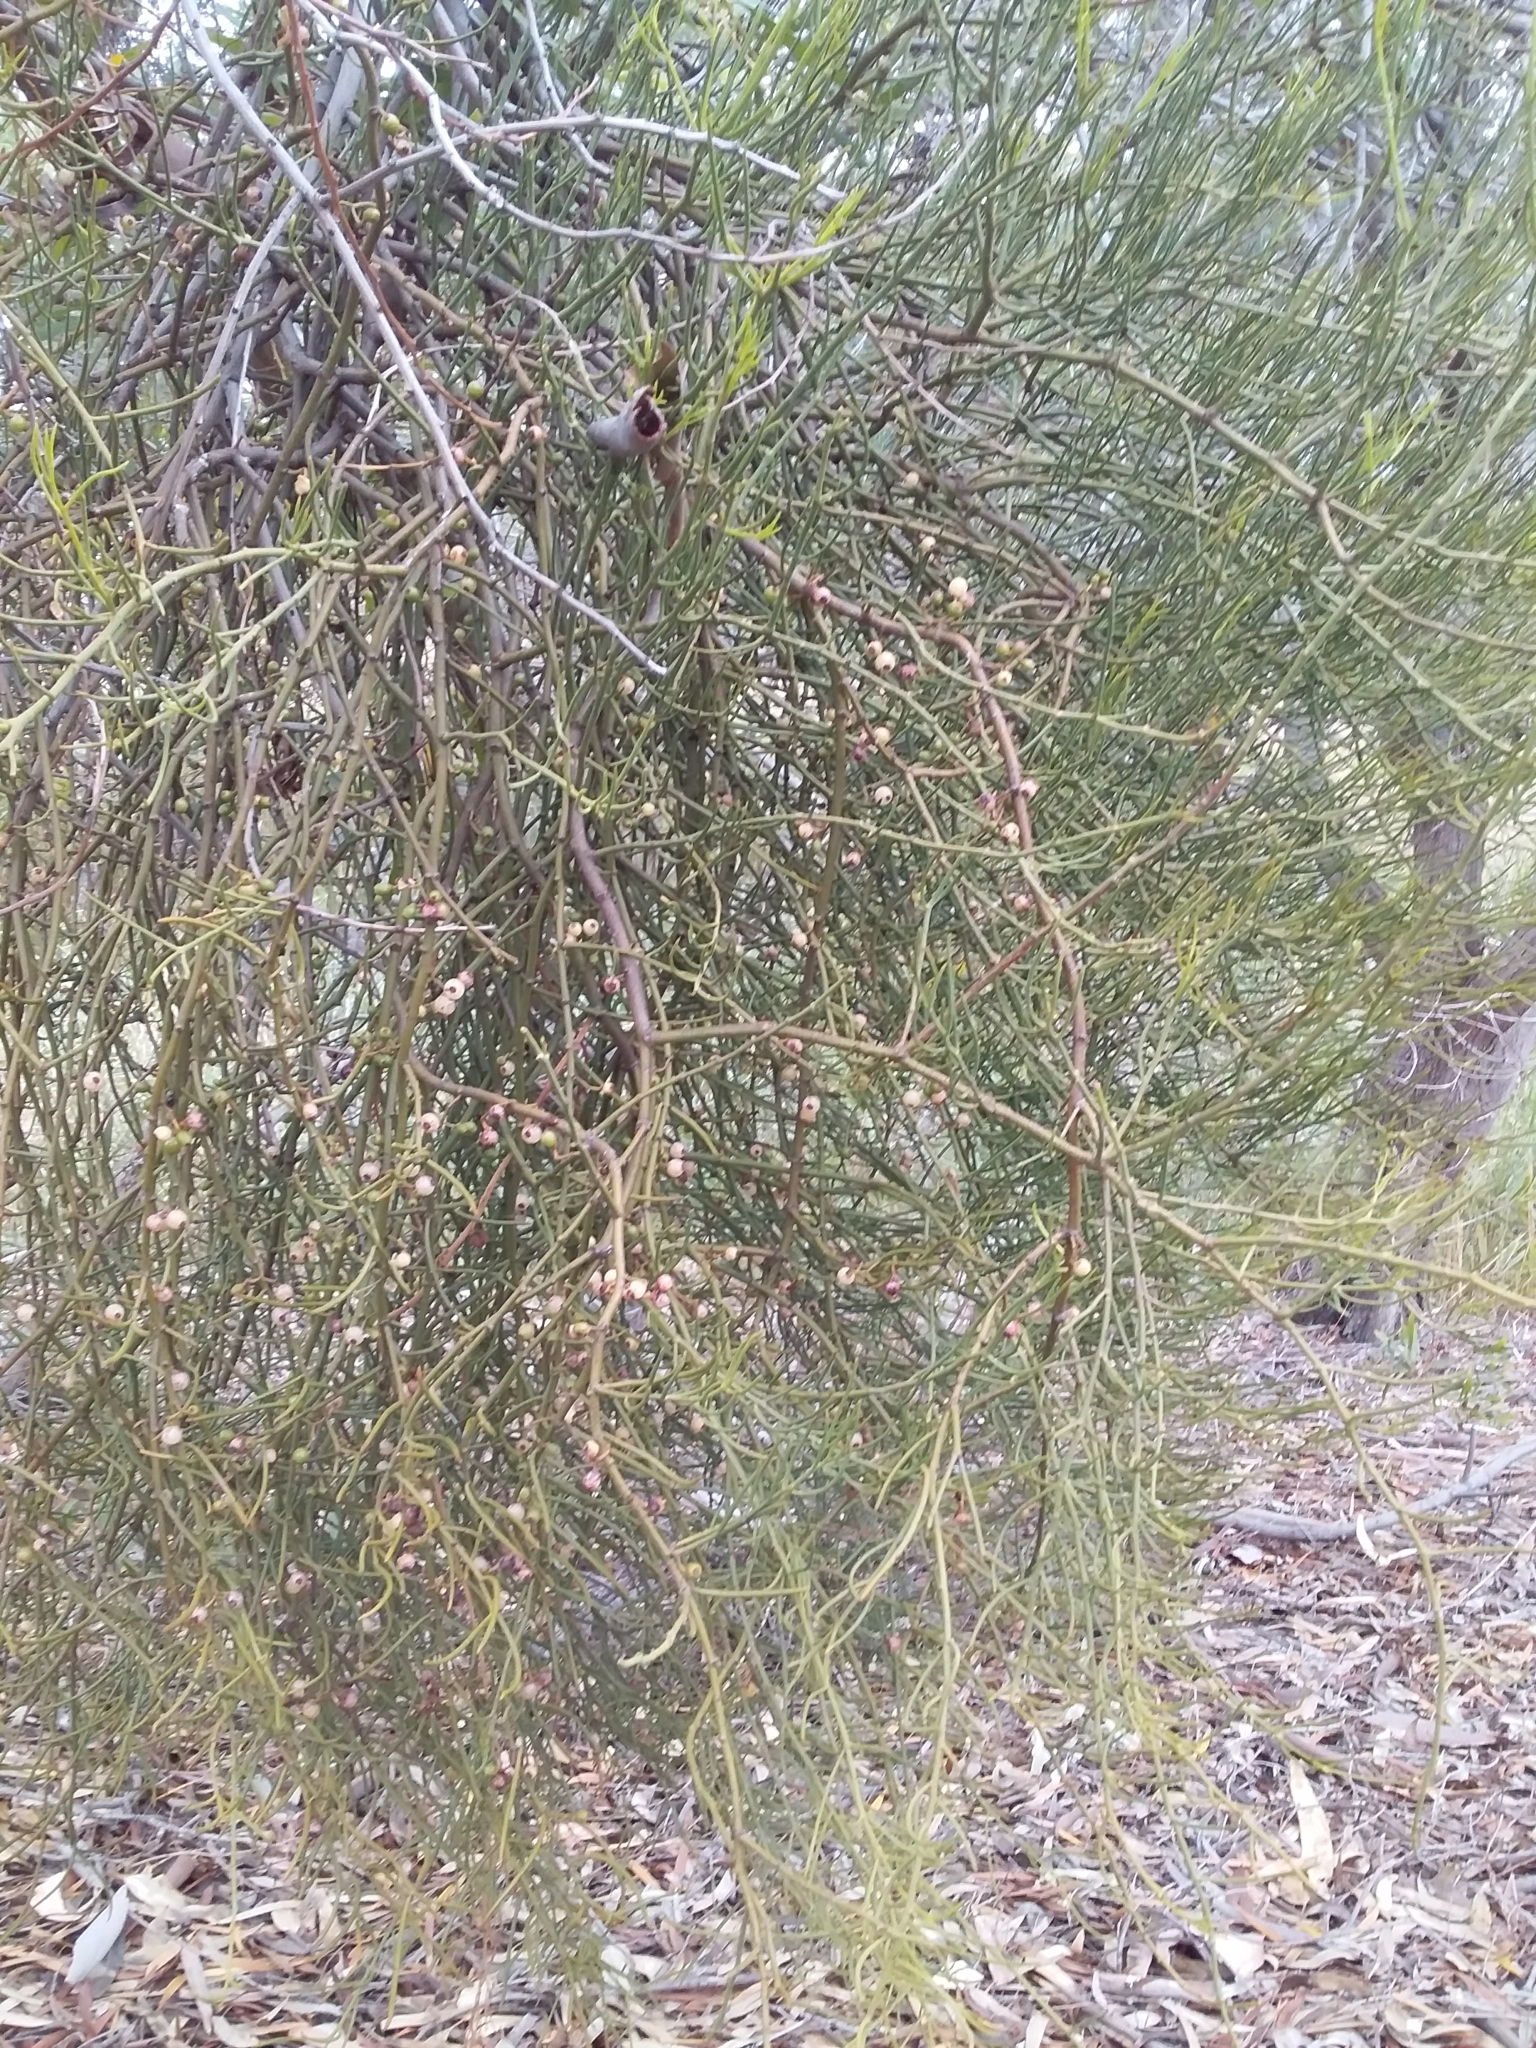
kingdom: Plantae
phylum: Tracheophyta
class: Magnoliopsida
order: Santalales
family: Loranthaceae
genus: Amyema
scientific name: Amyema preissii
